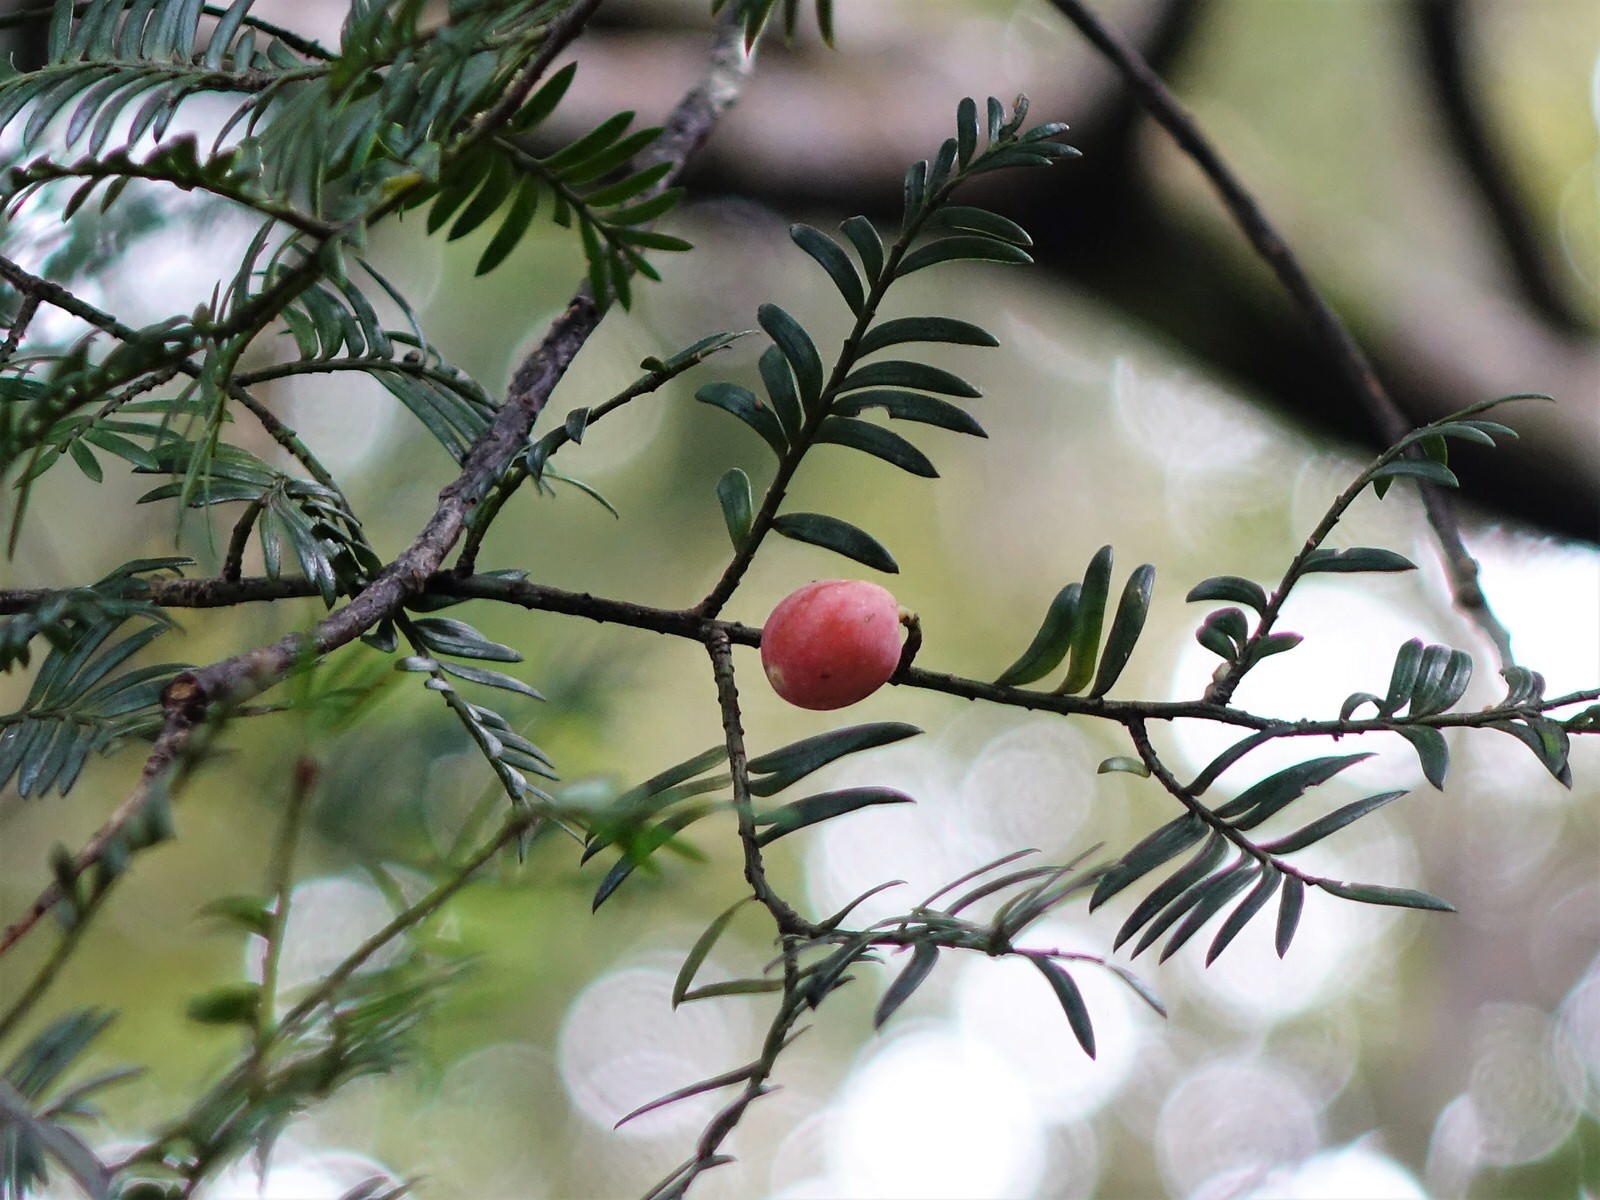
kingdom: Plantae
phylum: Tracheophyta
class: Pinopsida
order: Pinales
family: Podocarpaceae
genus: Prumnopitys
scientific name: Prumnopitys ferruginea
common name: Brown pine
